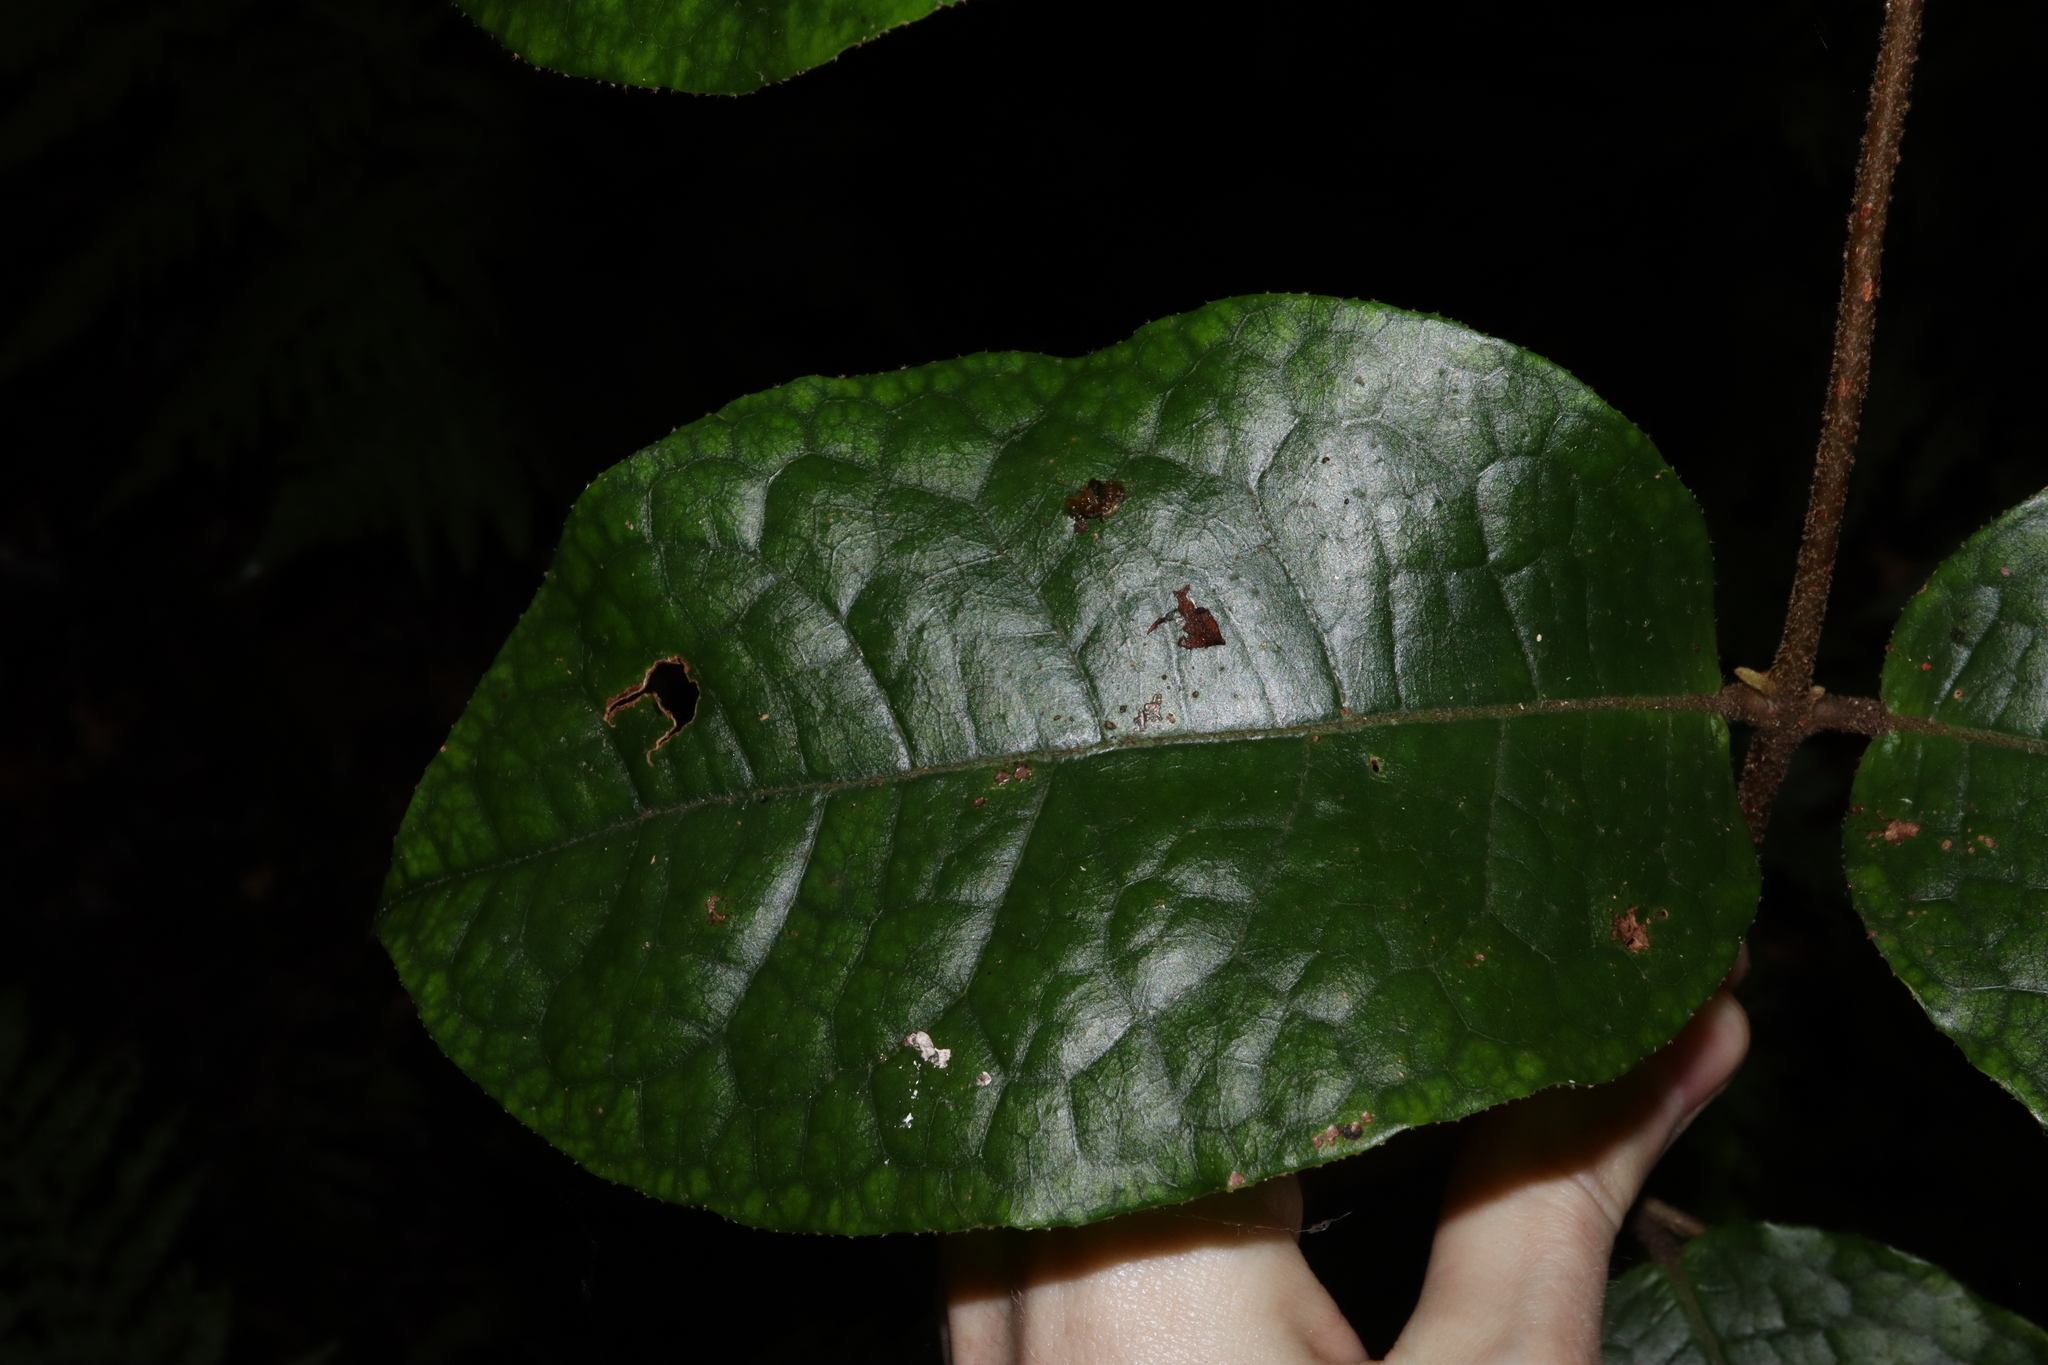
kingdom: Plantae
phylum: Tracheophyta
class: Magnoliopsida
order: Laurales
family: Monimiaceae
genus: Palmeria
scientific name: Palmeria scandens
